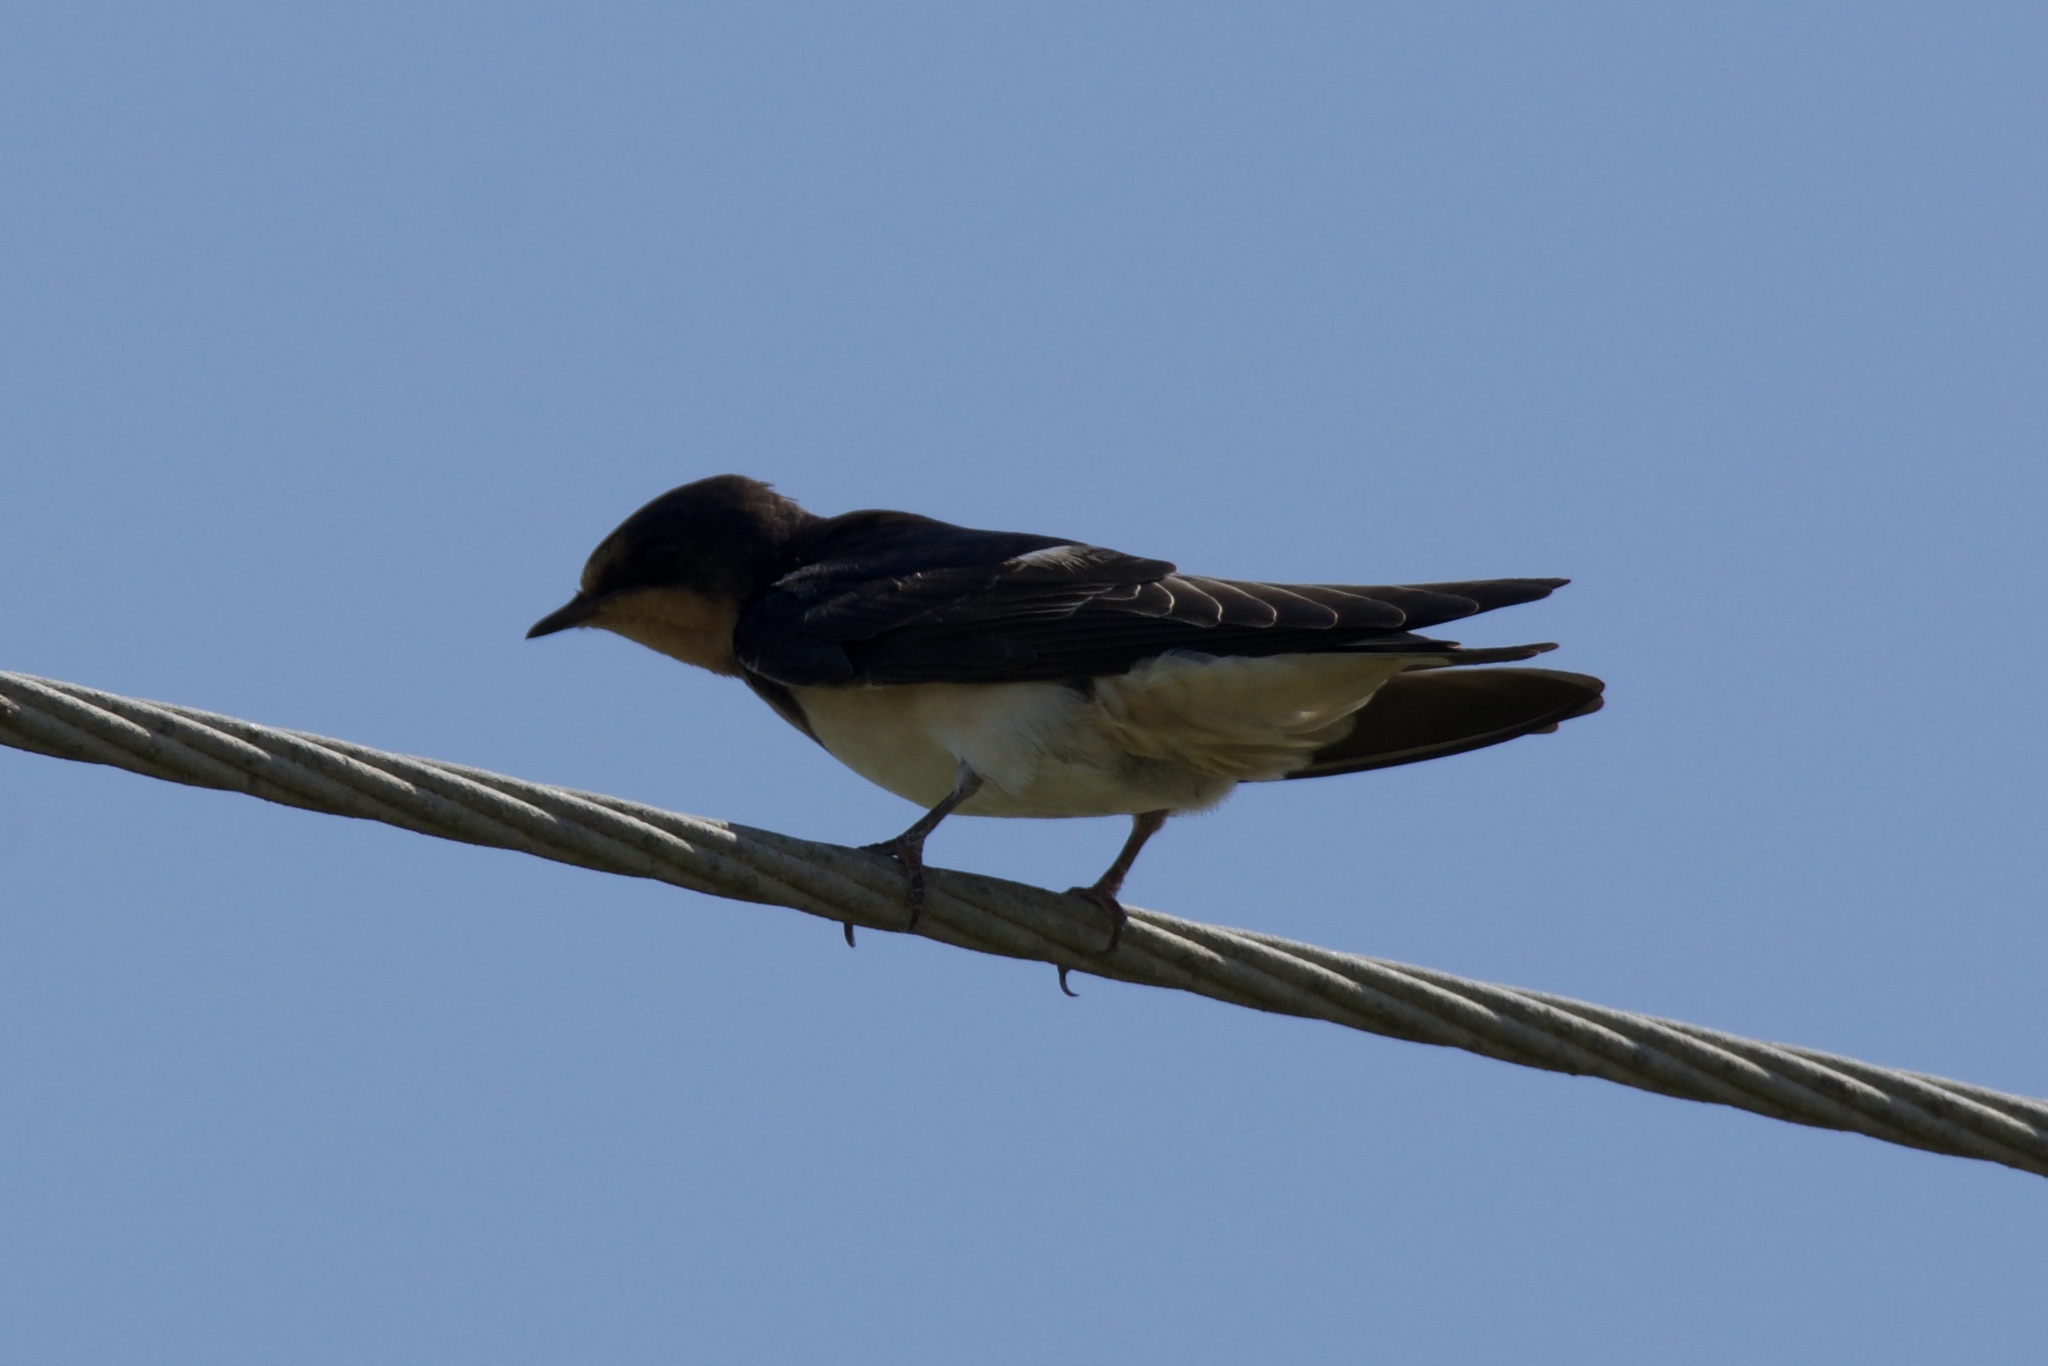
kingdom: Animalia
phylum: Chordata
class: Aves
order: Passeriformes
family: Hirundinidae
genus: Hirundo
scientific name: Hirundo rustica
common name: Barn swallow
